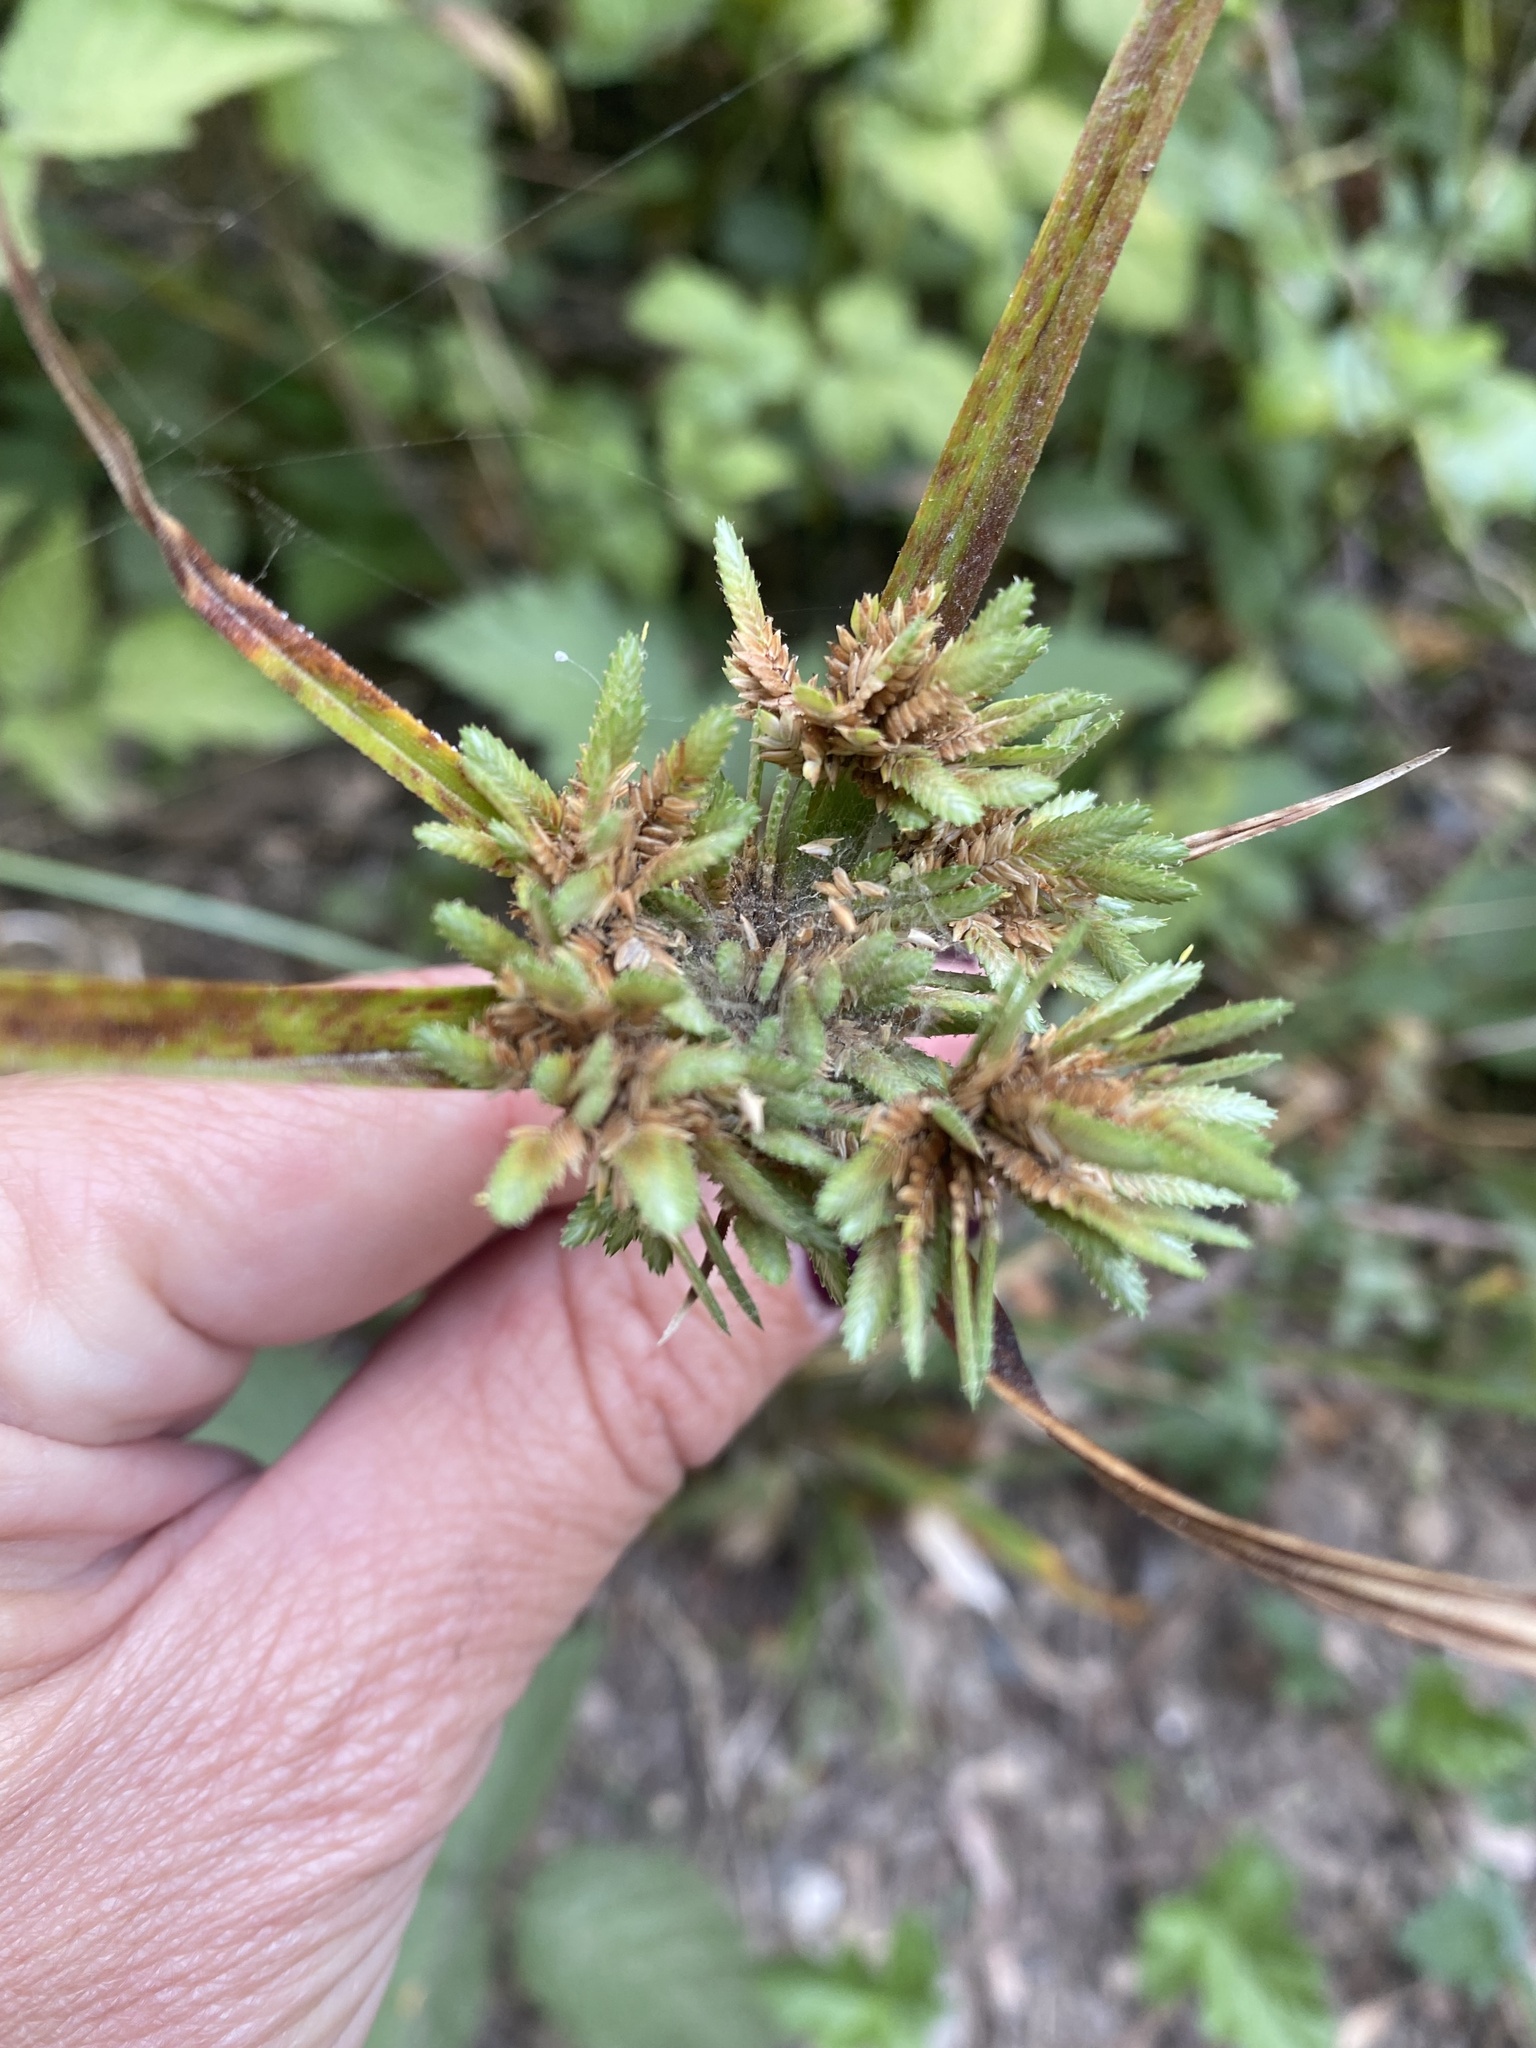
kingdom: Plantae
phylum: Tracheophyta
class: Liliopsida
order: Poales
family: Cyperaceae
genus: Cyperus
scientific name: Cyperus eragrostis
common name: Tall flatsedge
